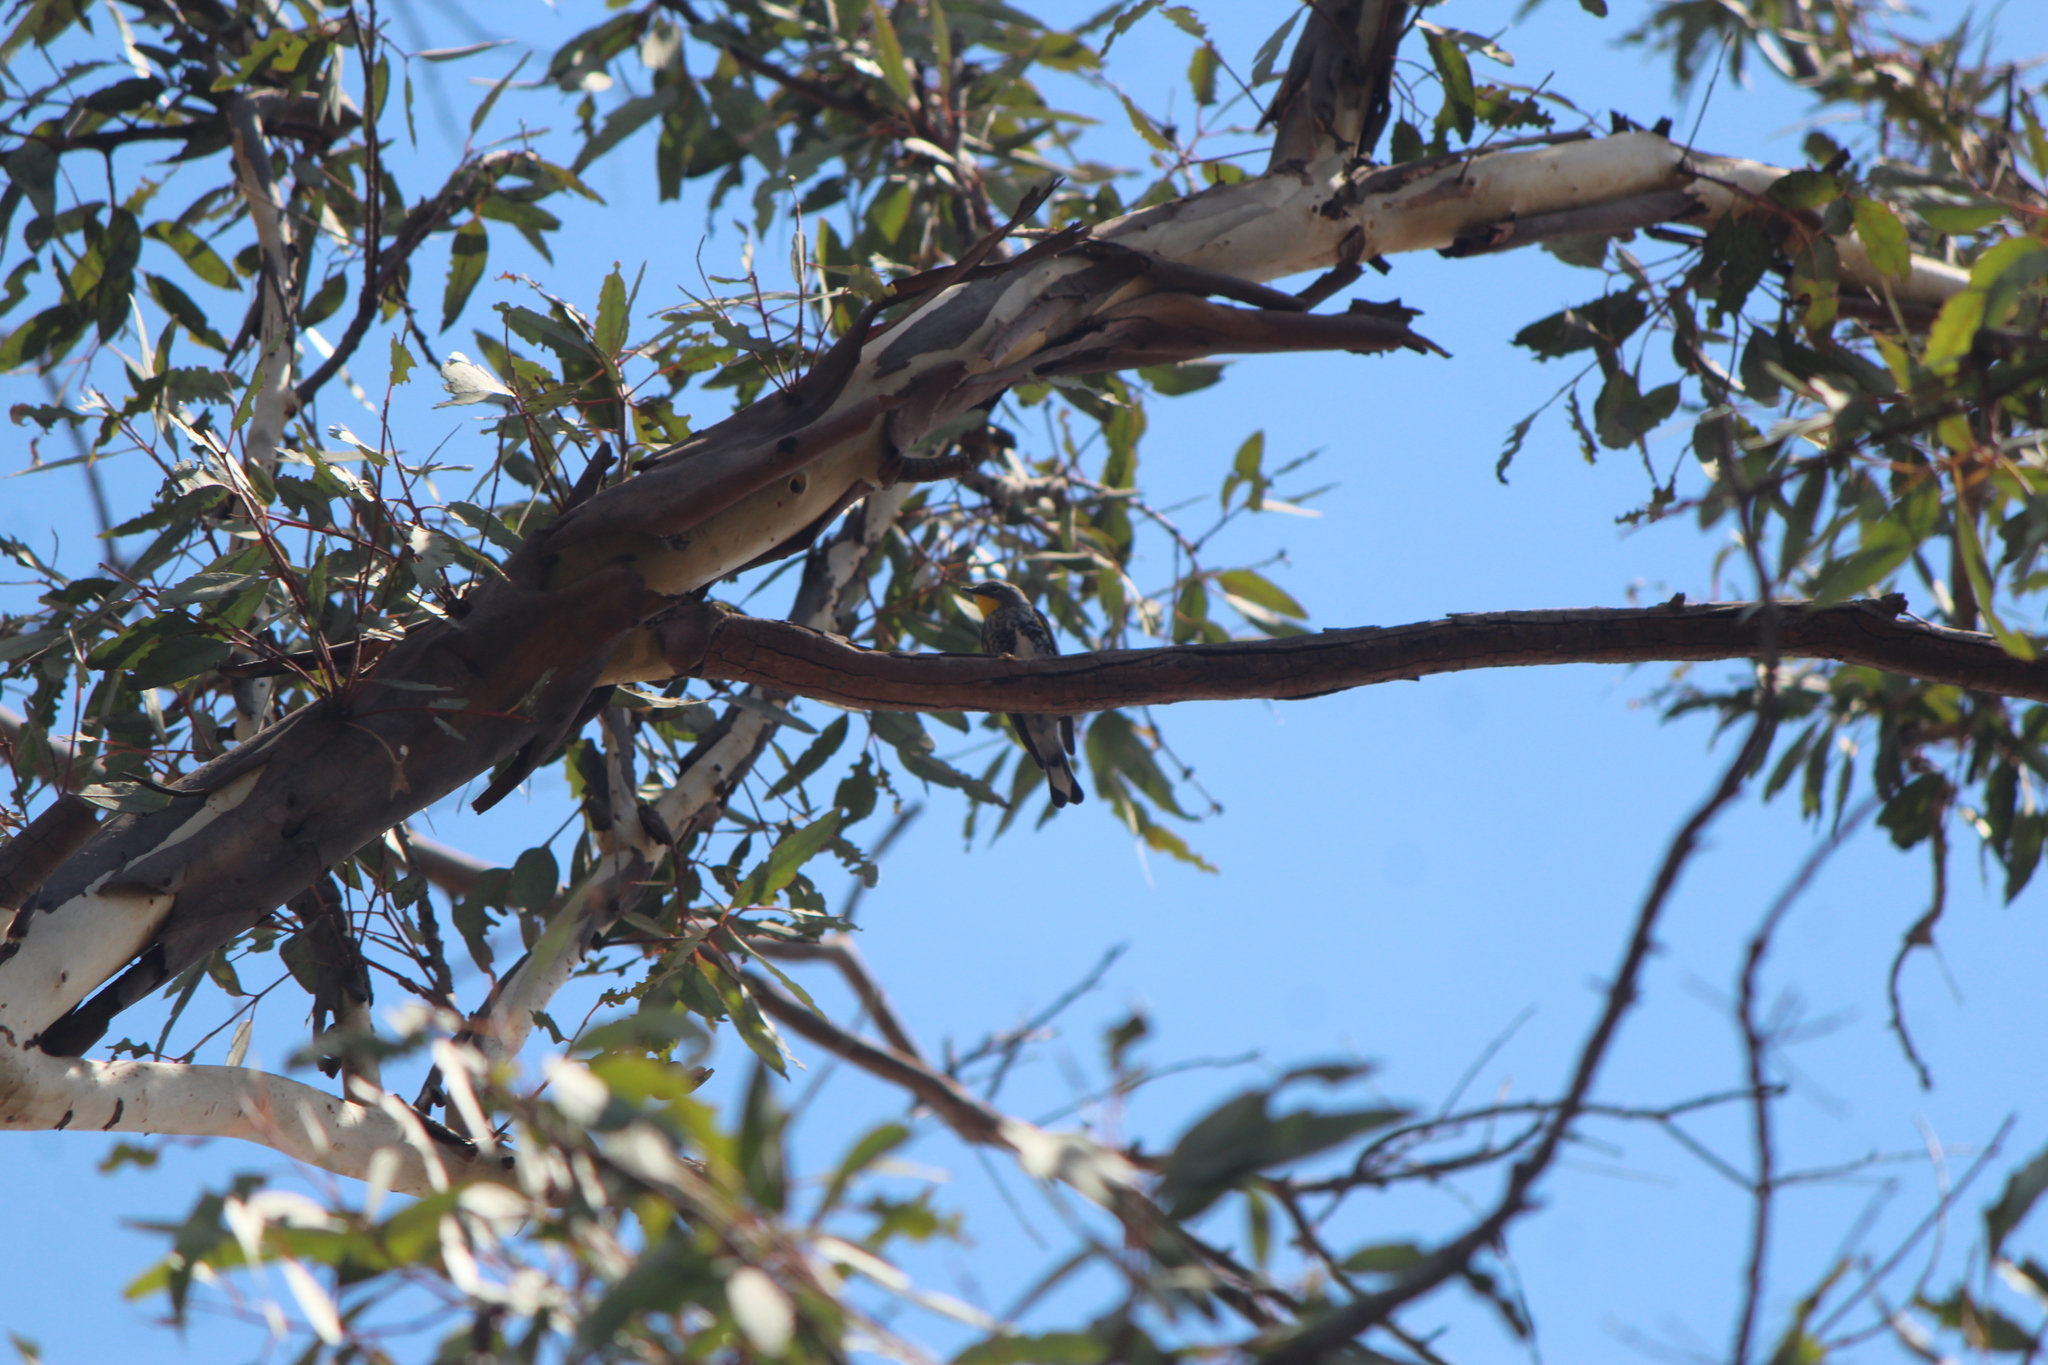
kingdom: Animalia
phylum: Chordata
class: Aves
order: Passeriformes
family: Parulidae
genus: Setophaga
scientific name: Setophaga auduboni
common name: Audubon's warbler
